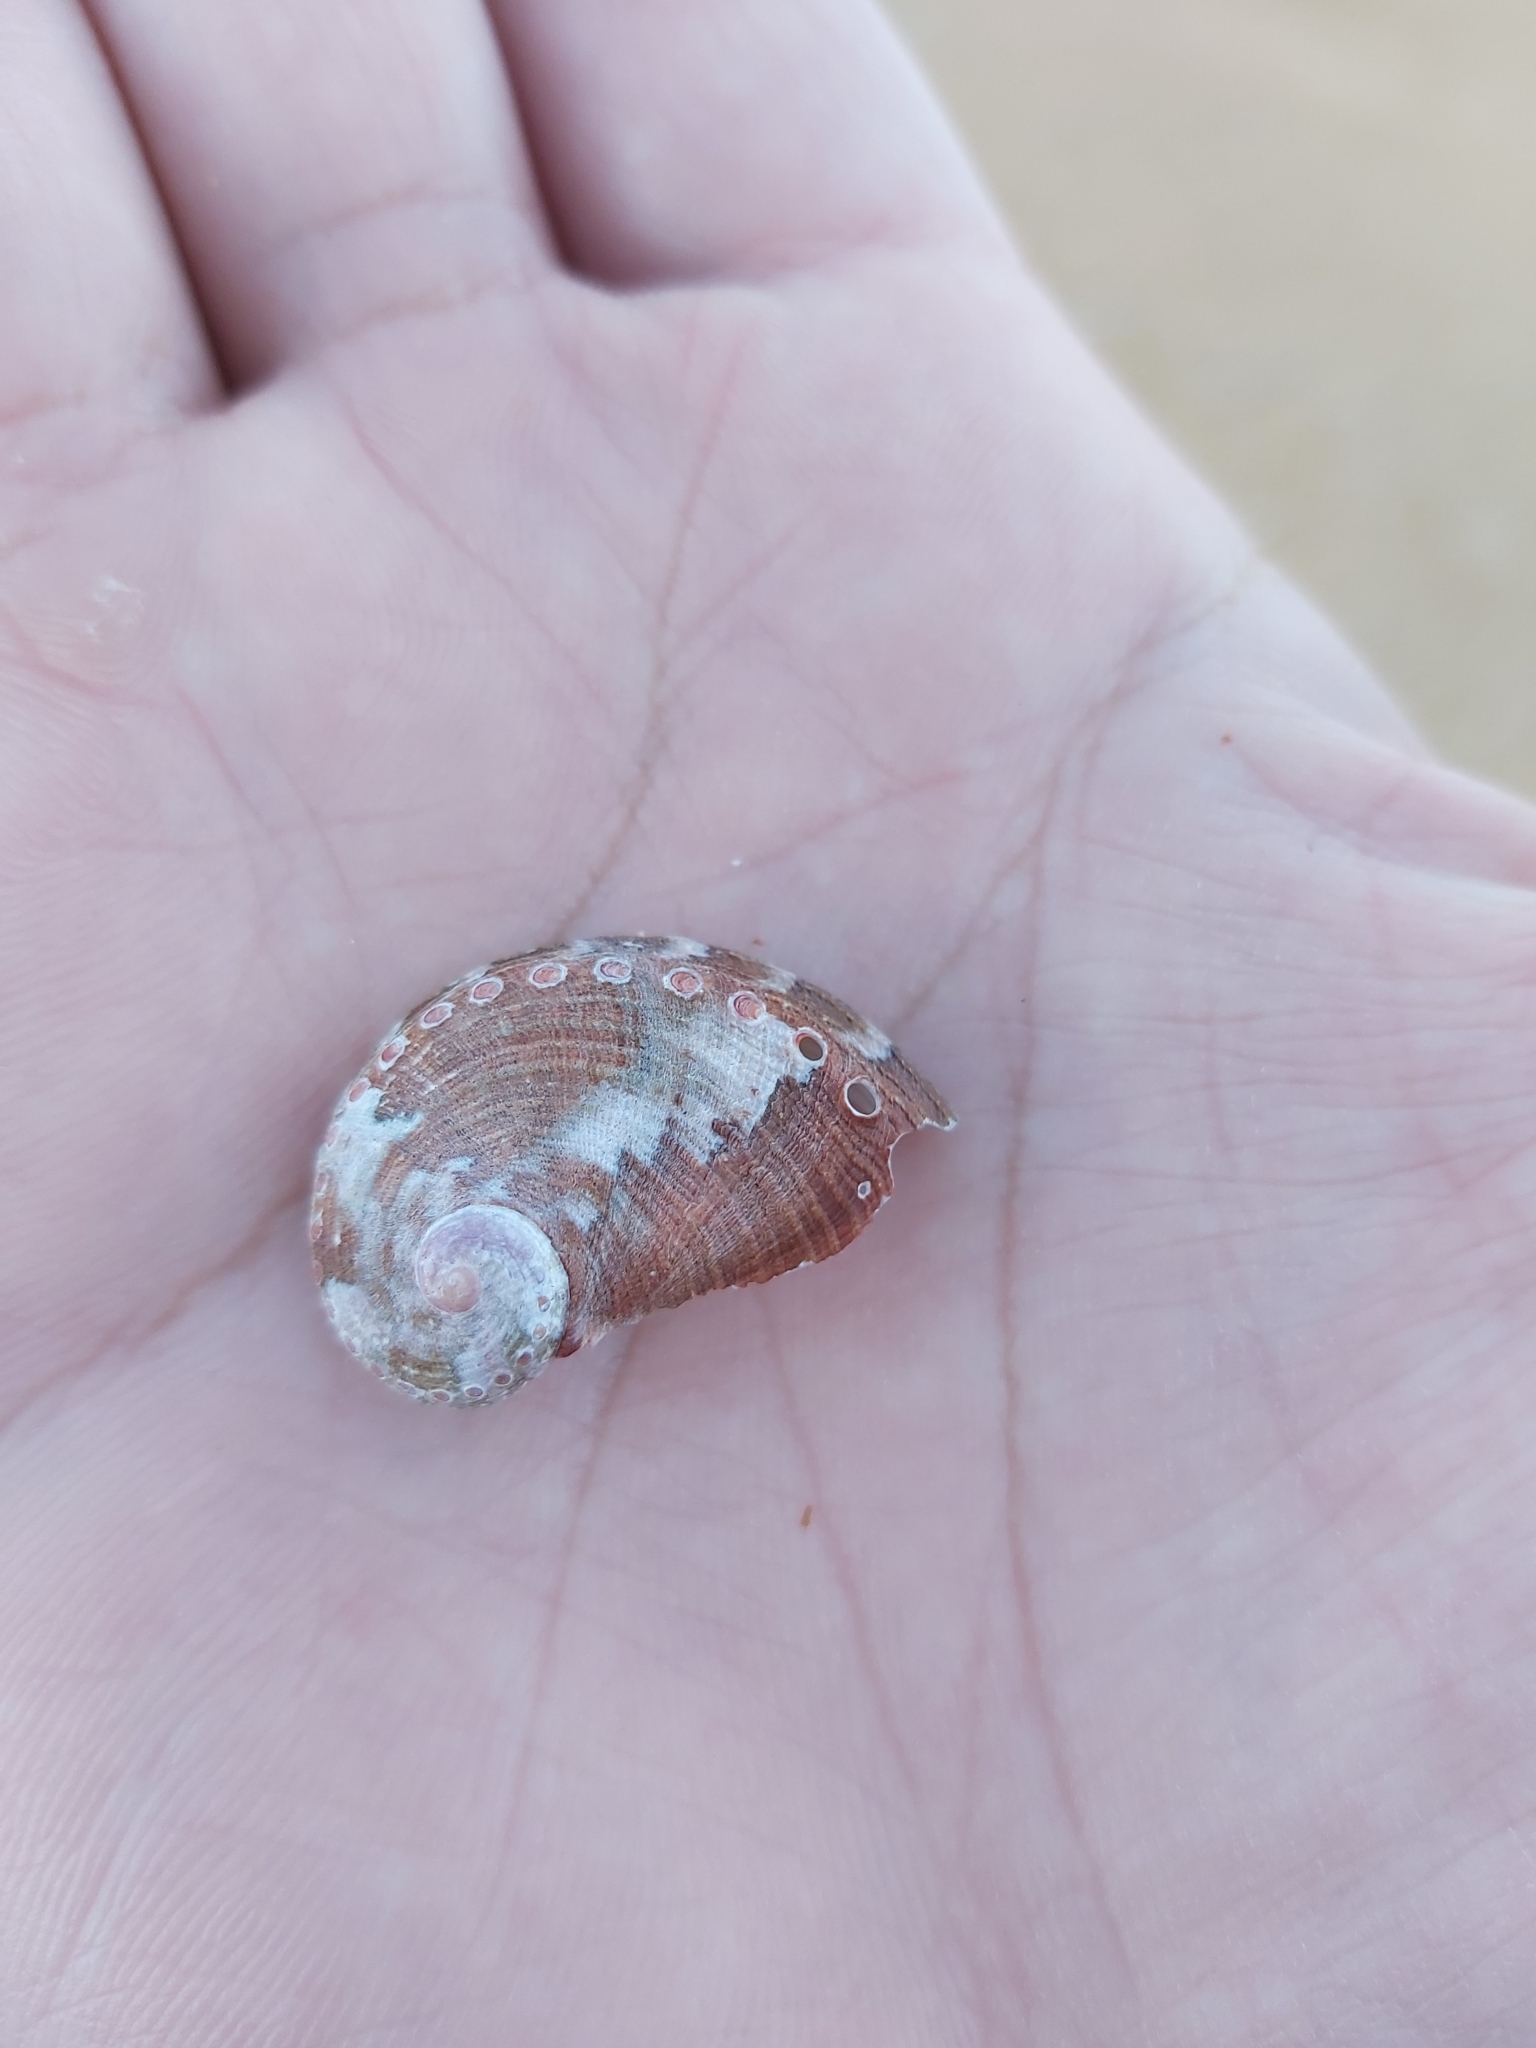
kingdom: Animalia
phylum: Mollusca
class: Gastropoda
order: Lepetellida
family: Haliotidae
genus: Haliotis
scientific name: Haliotis coccoradiata
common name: Reddish-rayed abalone
